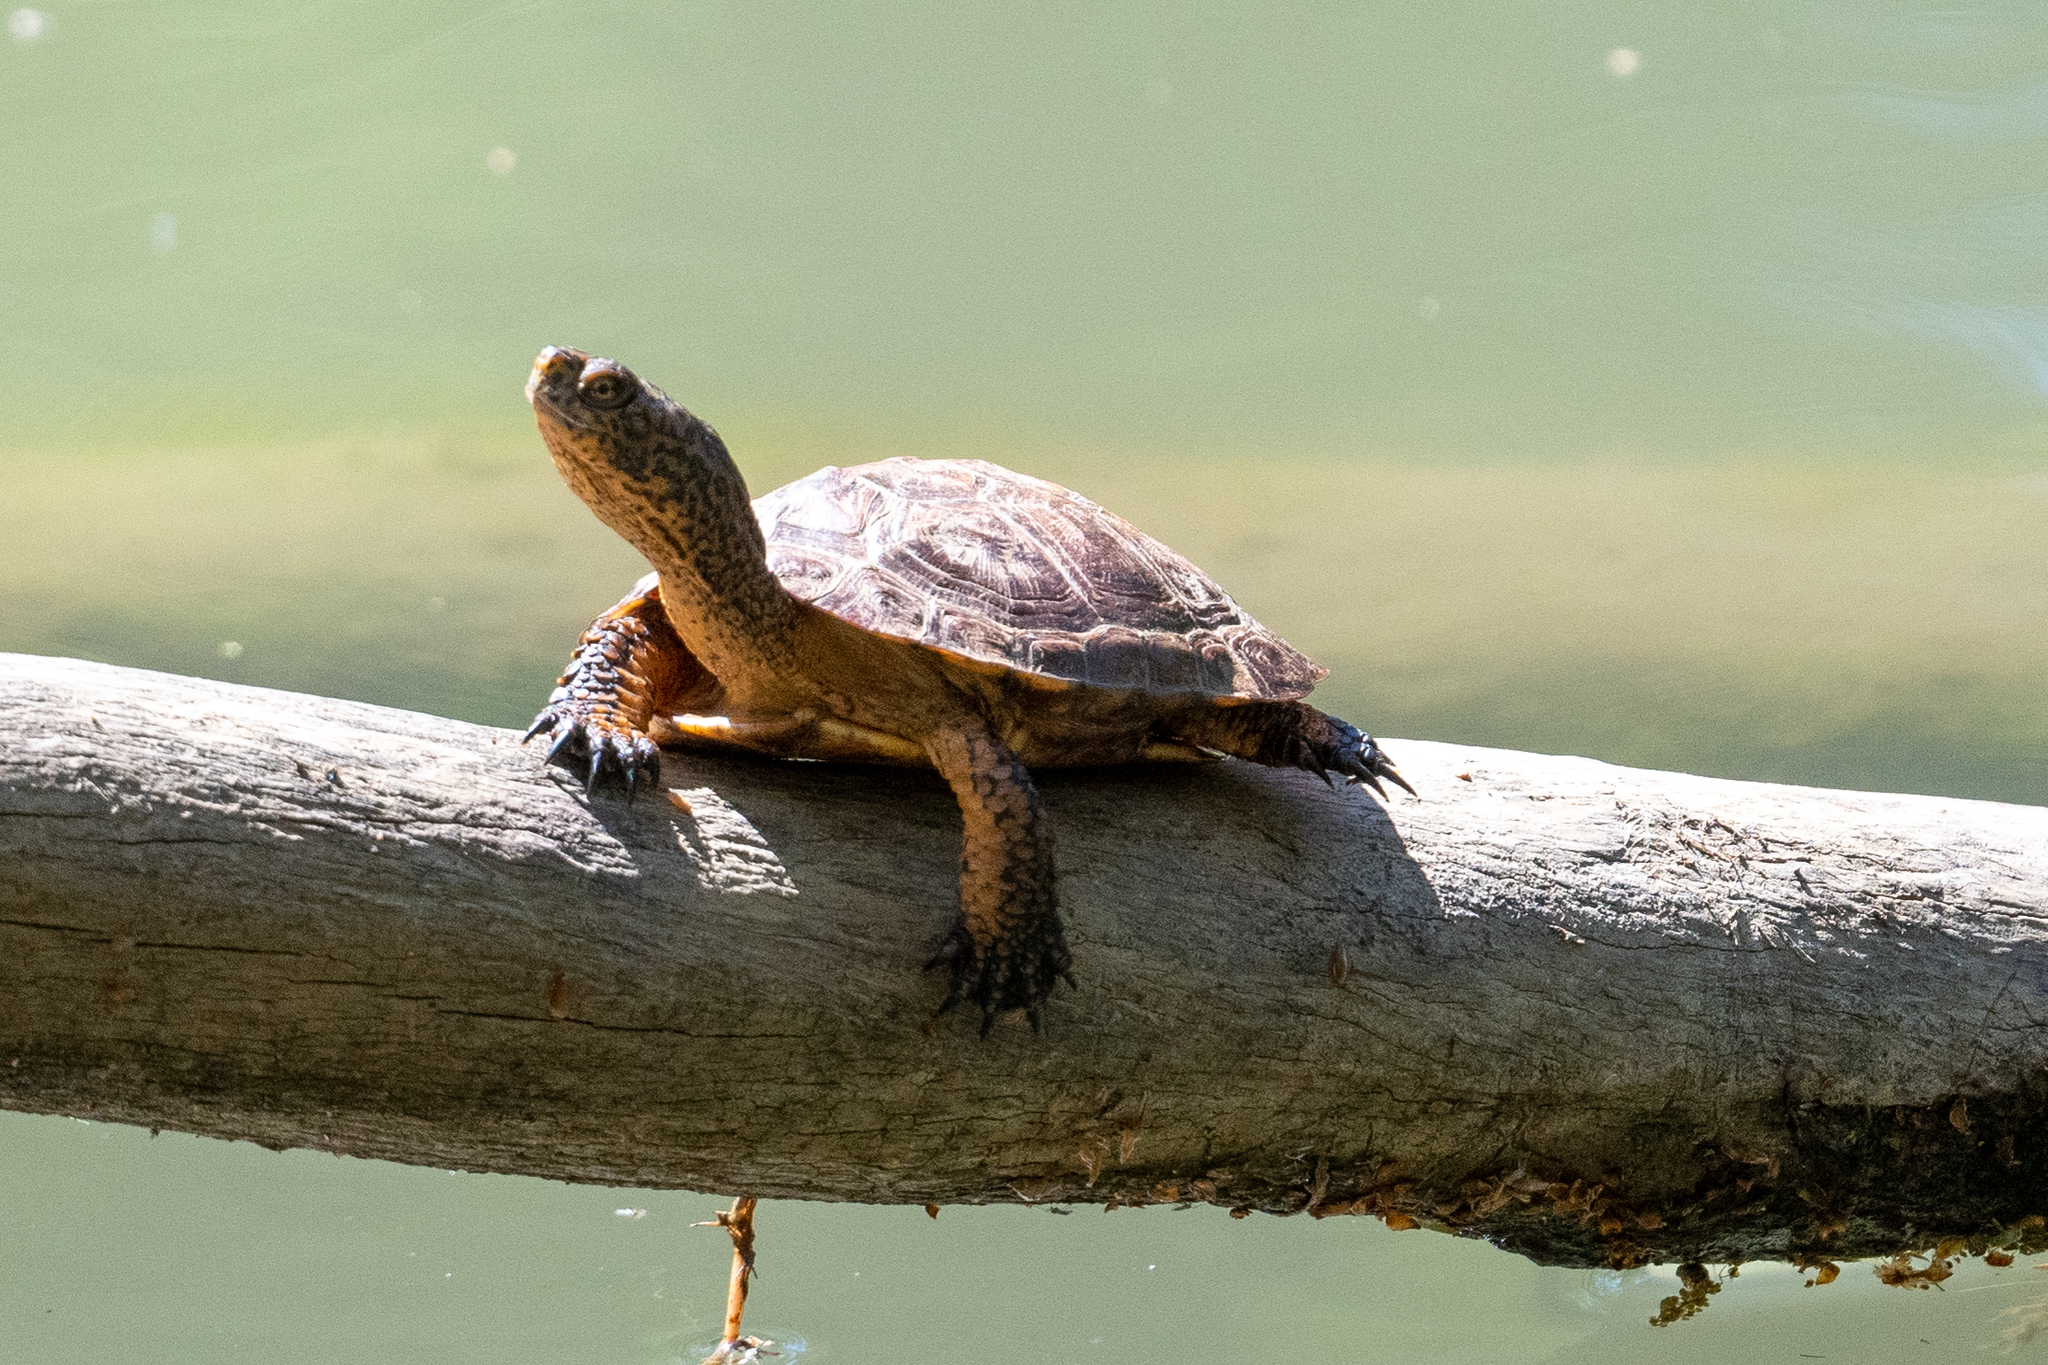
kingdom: Animalia
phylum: Chordata
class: Testudines
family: Emydidae
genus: Actinemys
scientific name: Actinemys marmorata
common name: Western pond turtle
